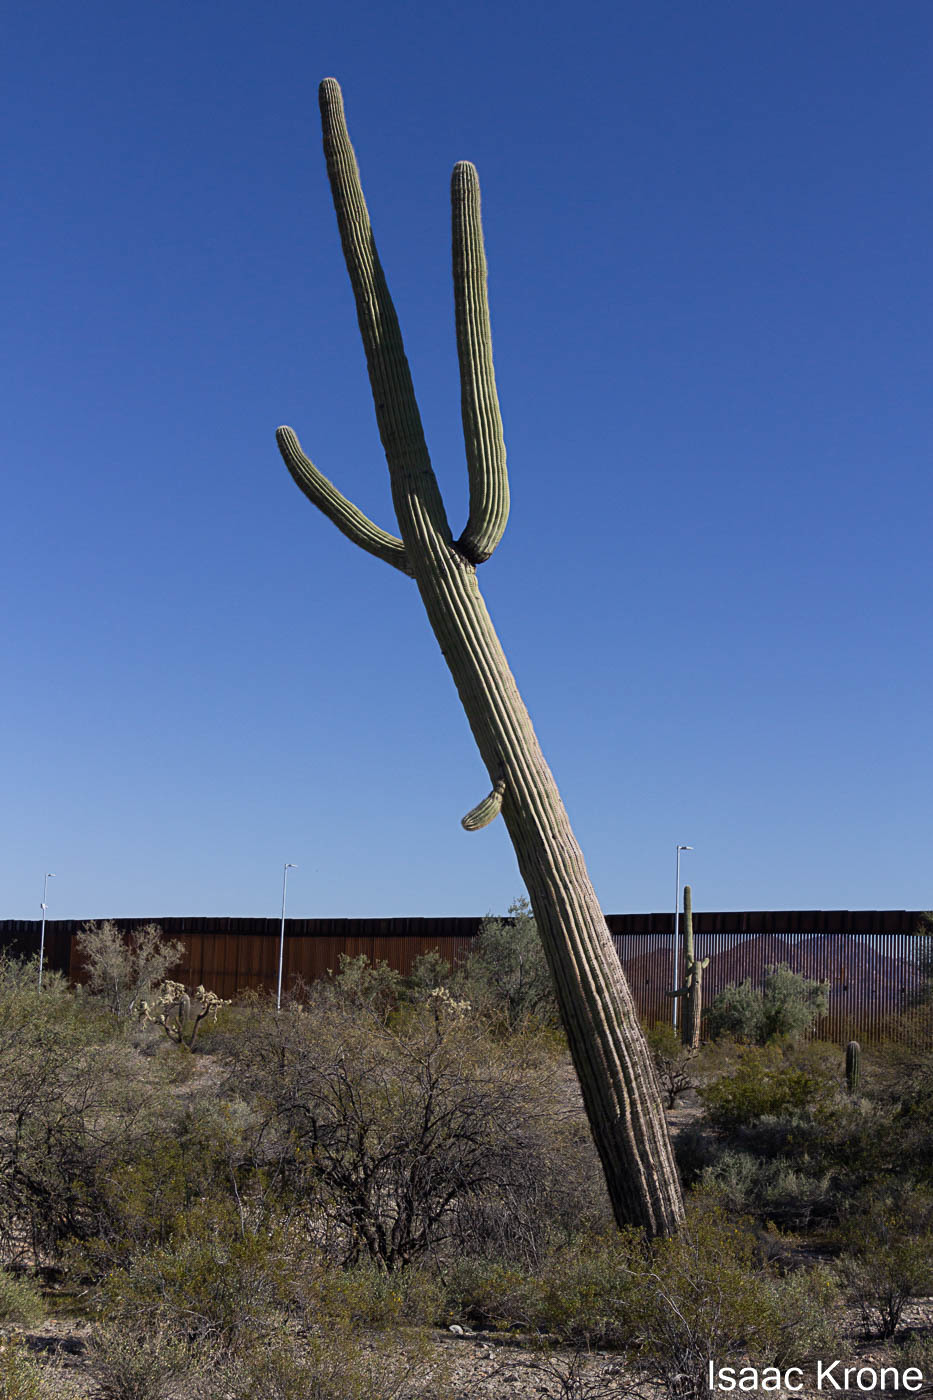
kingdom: Plantae
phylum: Tracheophyta
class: Magnoliopsida
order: Caryophyllales
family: Cactaceae
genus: Carnegiea
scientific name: Carnegiea gigantea
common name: Saguaro
